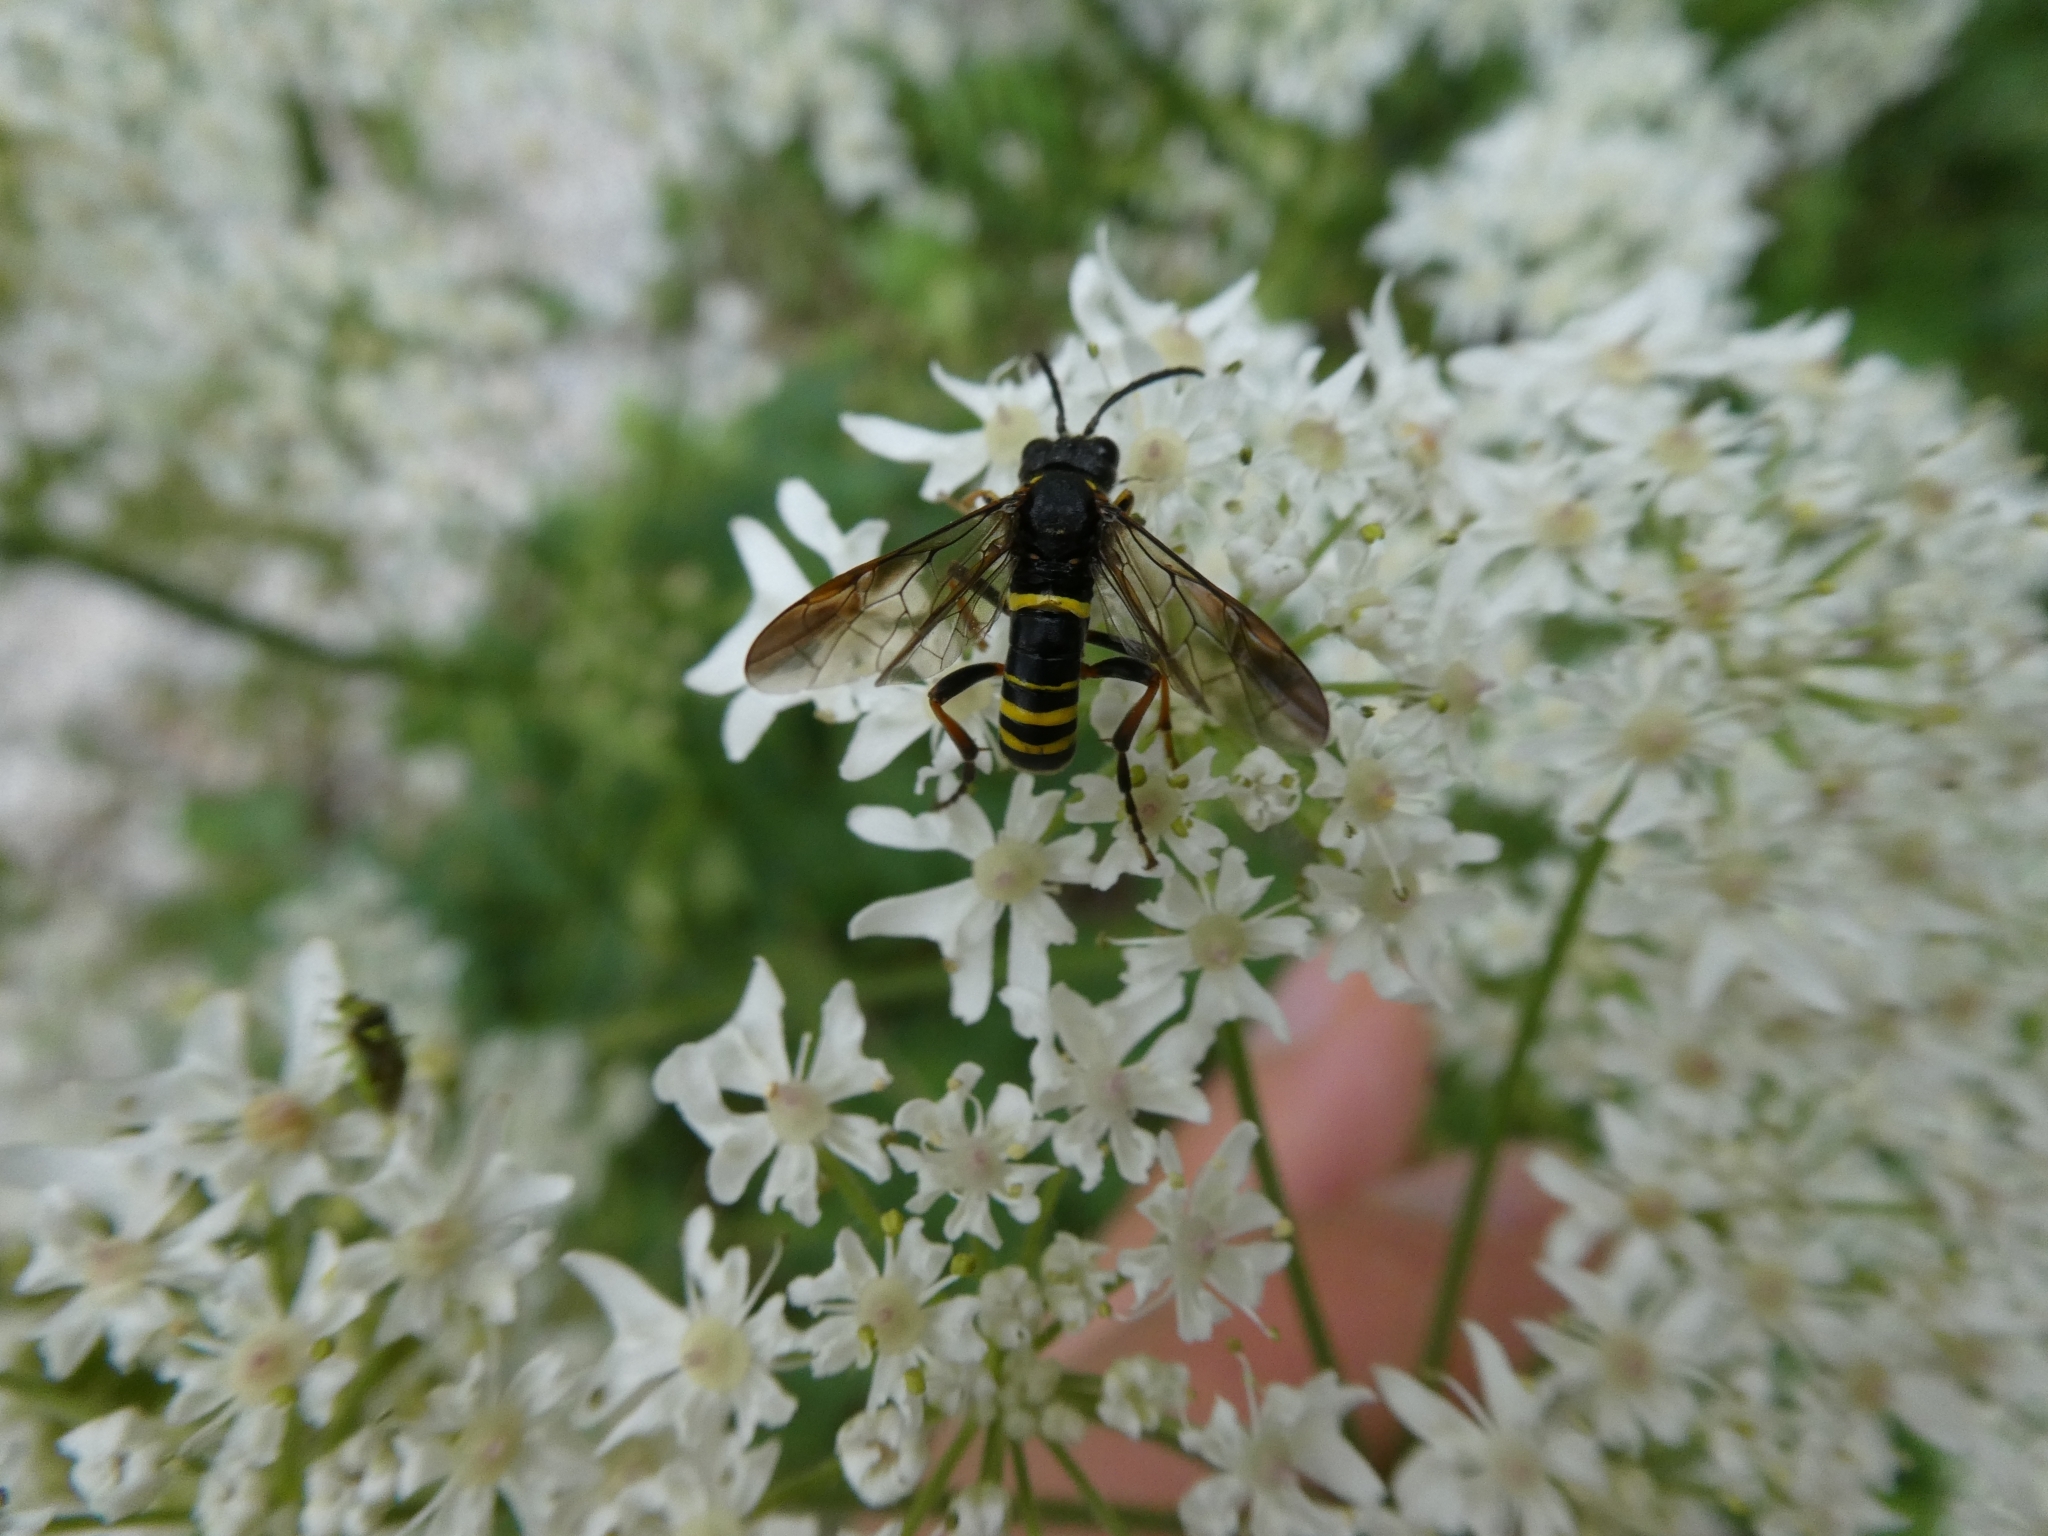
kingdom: Animalia
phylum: Arthropoda
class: Insecta
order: Hymenoptera
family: Tenthredinidae
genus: Tenthredo
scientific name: Tenthredo vespa
